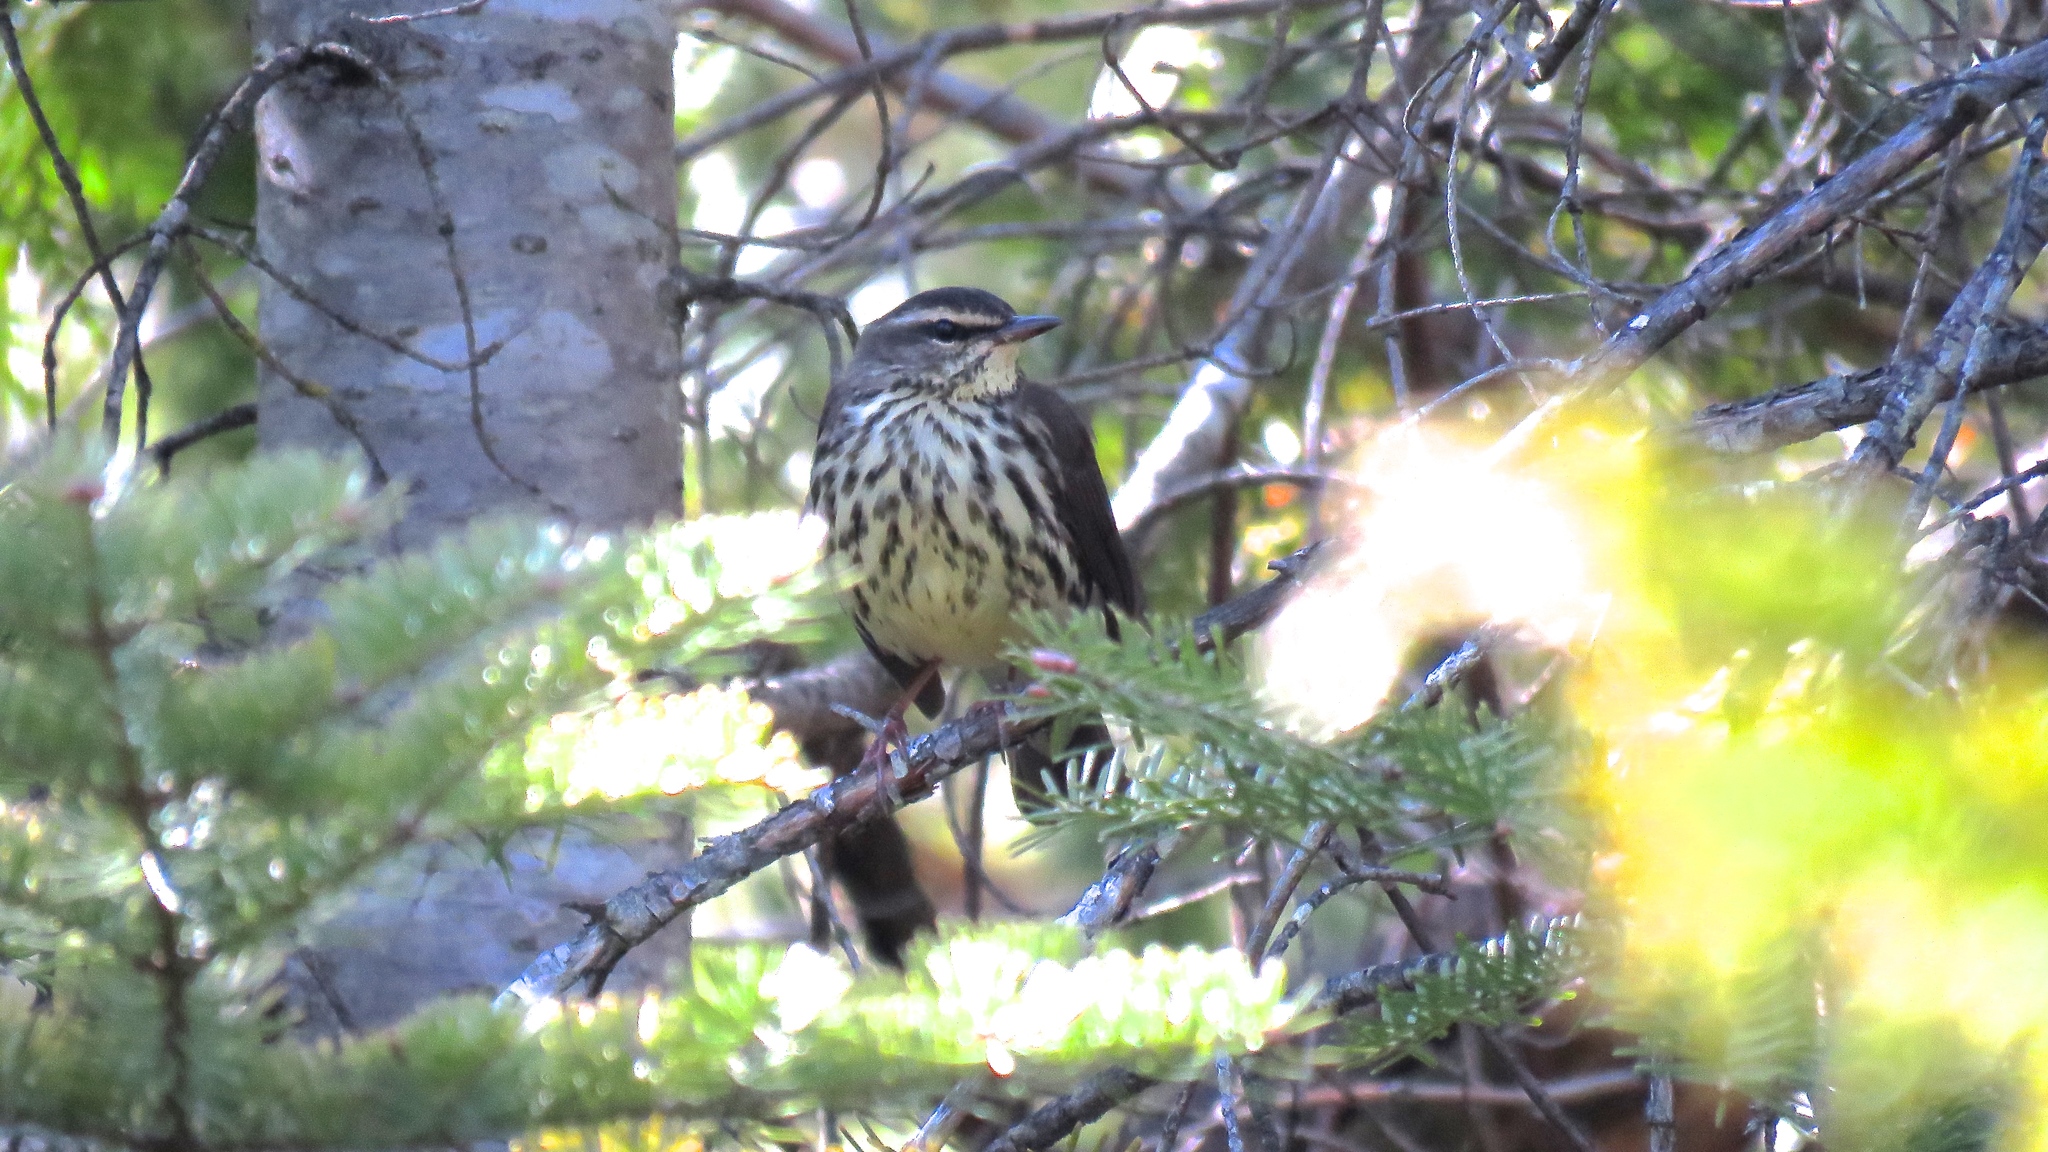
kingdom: Animalia
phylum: Chordata
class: Aves
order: Passeriformes
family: Parulidae
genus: Parkesia
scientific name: Parkesia noveboracensis
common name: Northern waterthrush
